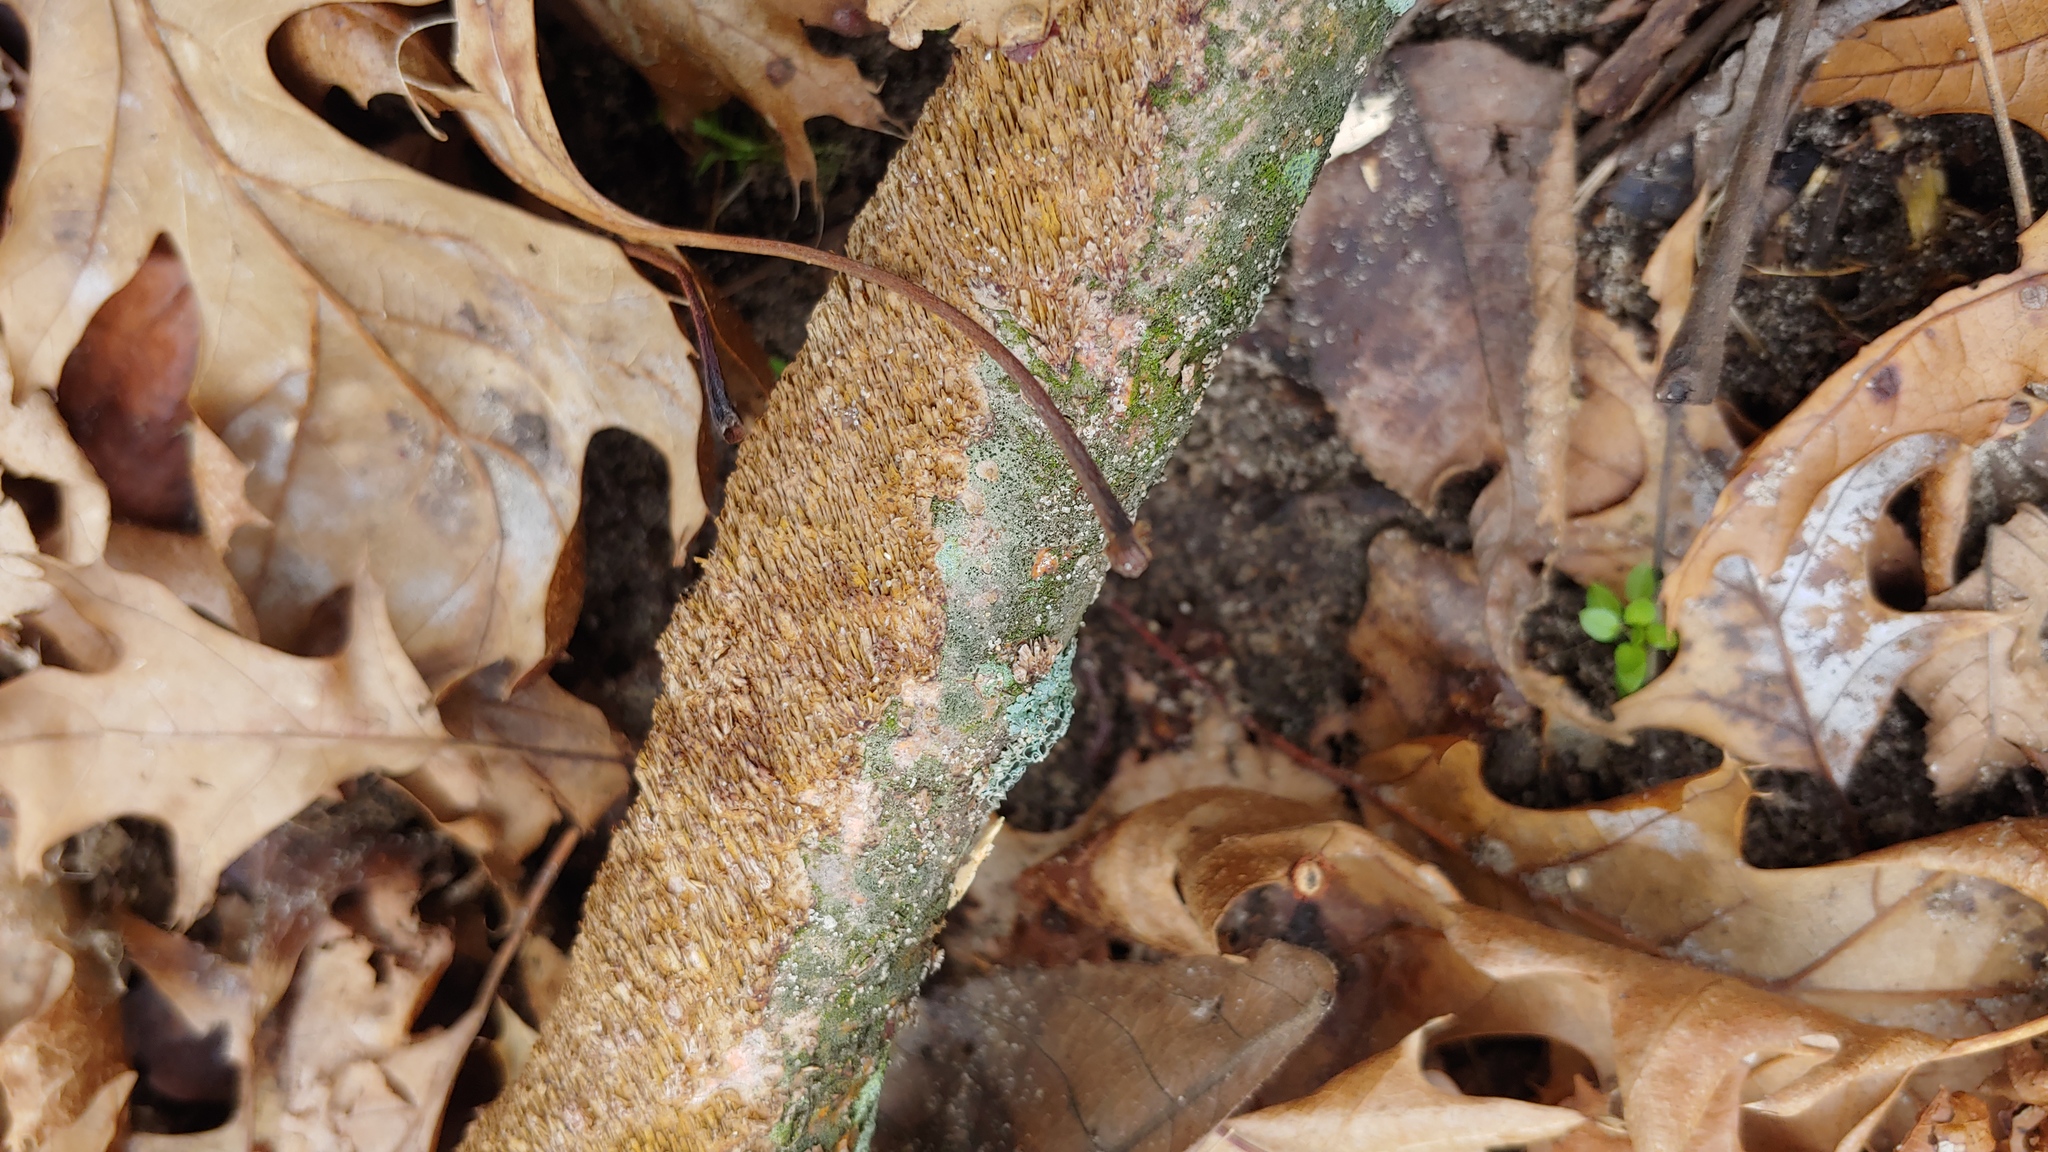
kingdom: Fungi
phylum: Basidiomycota
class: Agaricomycetes
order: Hymenochaetales
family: Hymenochaetaceae
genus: Hydnoporia
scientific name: Hydnoporia olivacea
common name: Brown-toothed crust fungus
